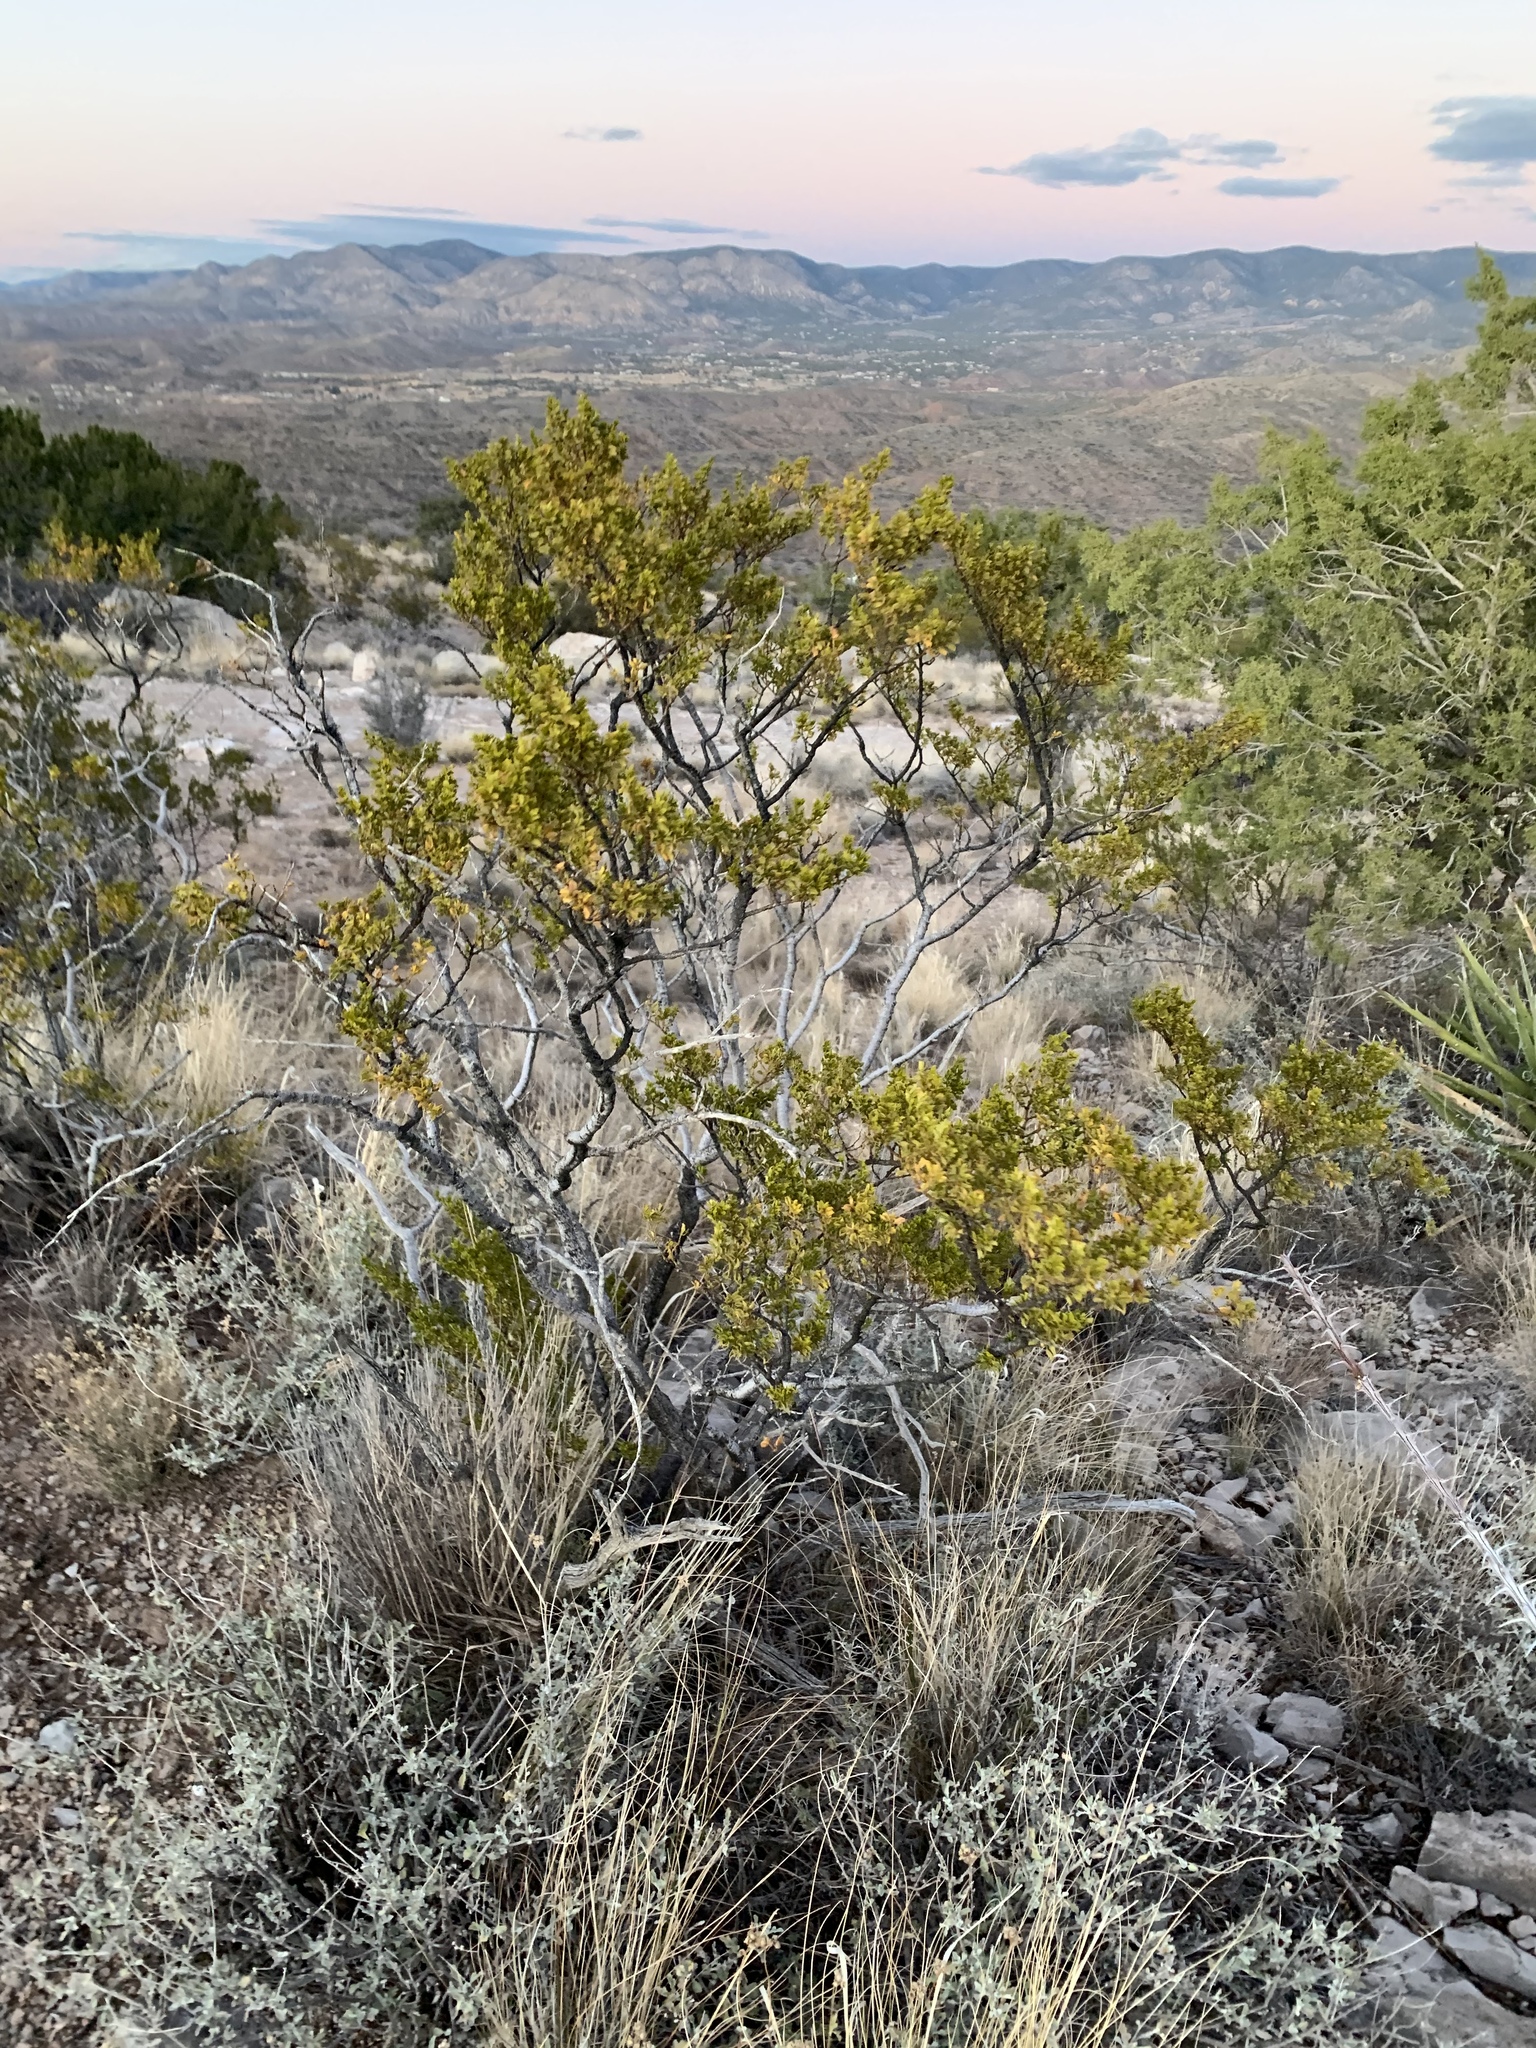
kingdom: Plantae
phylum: Tracheophyta
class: Magnoliopsida
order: Zygophyllales
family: Zygophyllaceae
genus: Larrea
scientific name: Larrea tridentata
